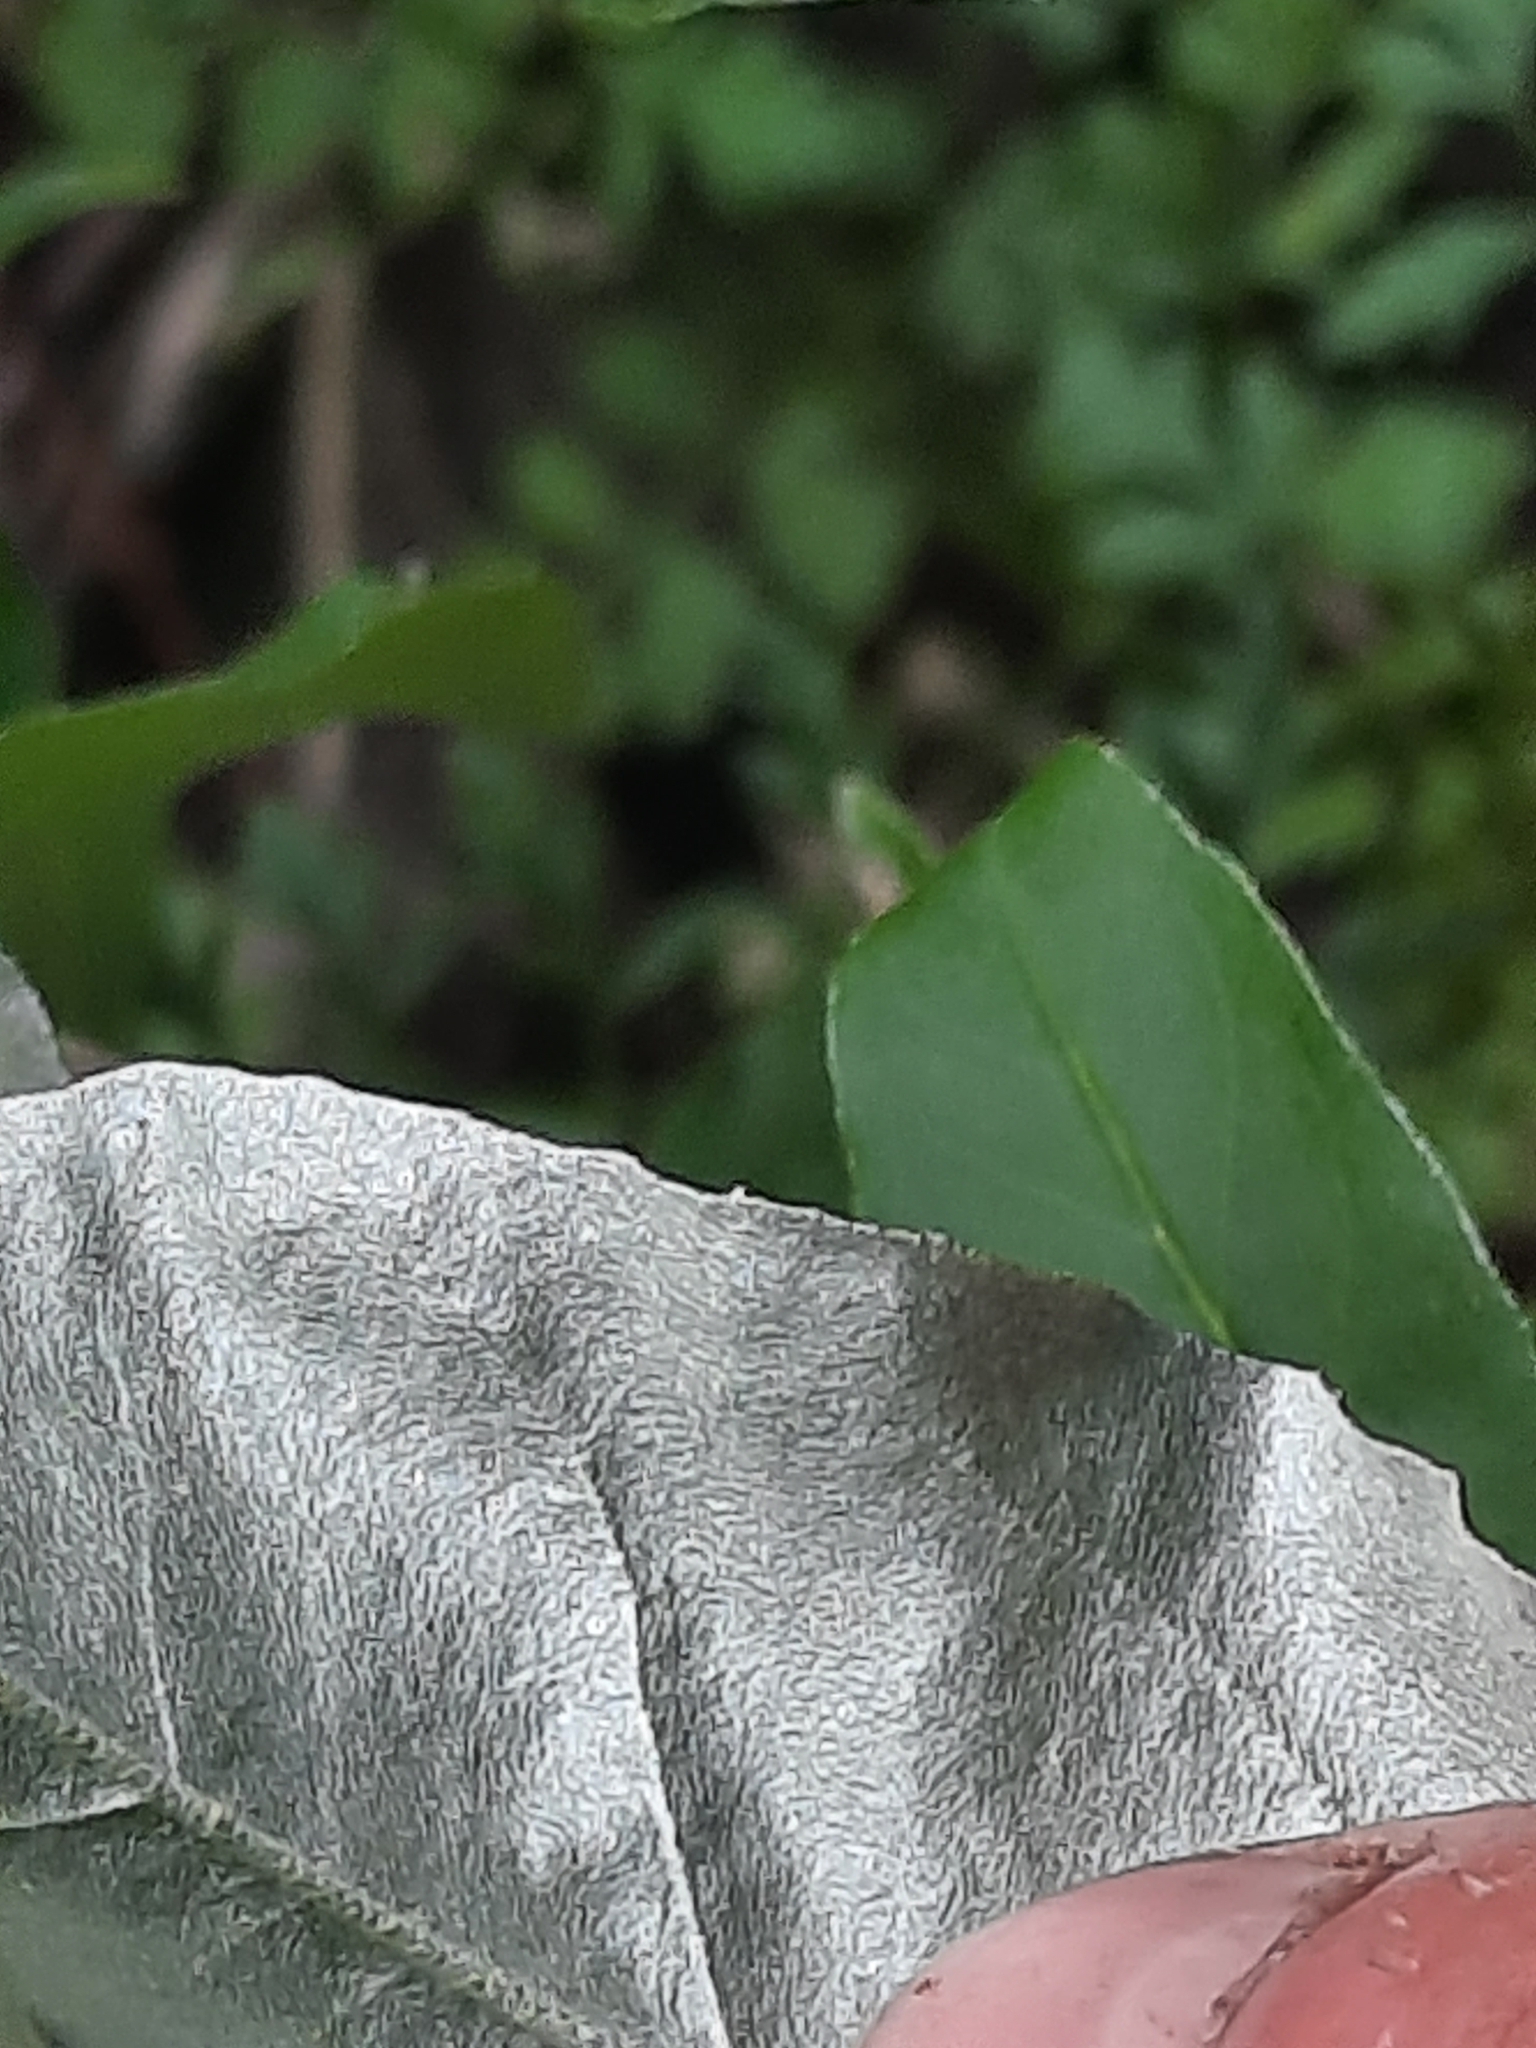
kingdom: Plantae
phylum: Tracheophyta
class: Magnoliopsida
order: Rosales
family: Elaeagnaceae
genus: Elaeagnus
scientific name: Elaeagnus umbellata
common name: Autumn olive
